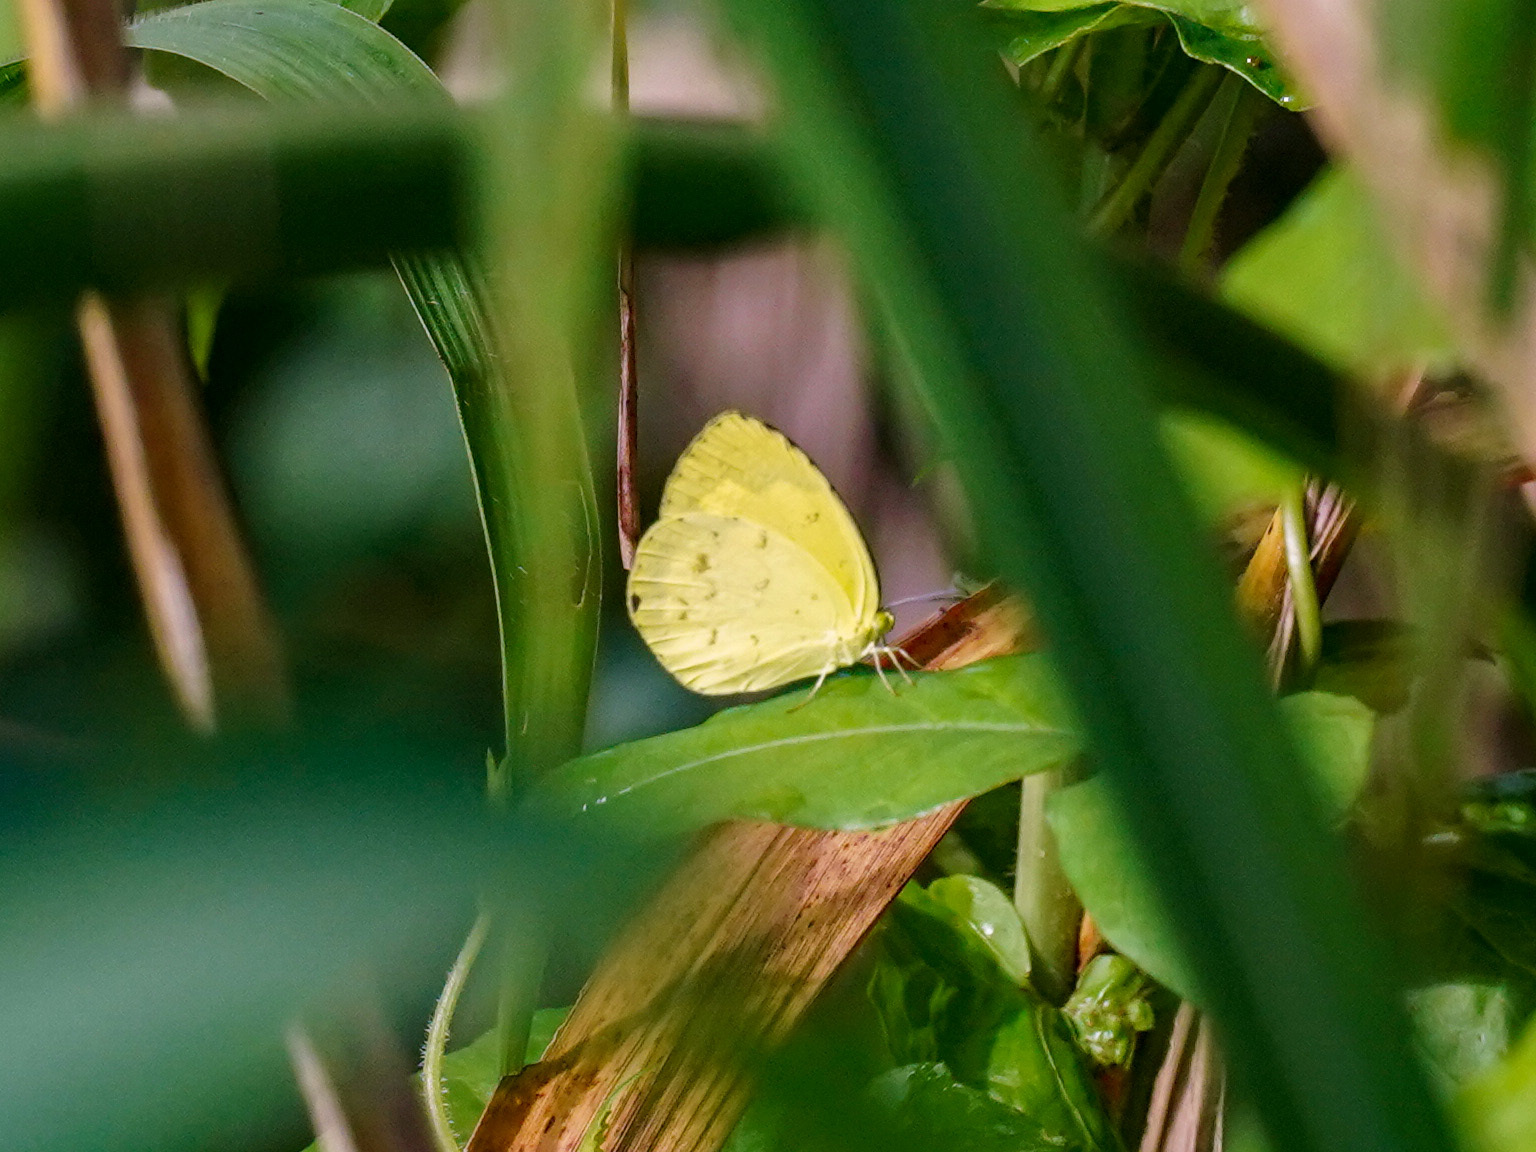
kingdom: Animalia
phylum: Arthropoda
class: Insecta
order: Lepidoptera
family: Pieridae
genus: Eurema
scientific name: Eurema hecabe
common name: Pale grass yellow
